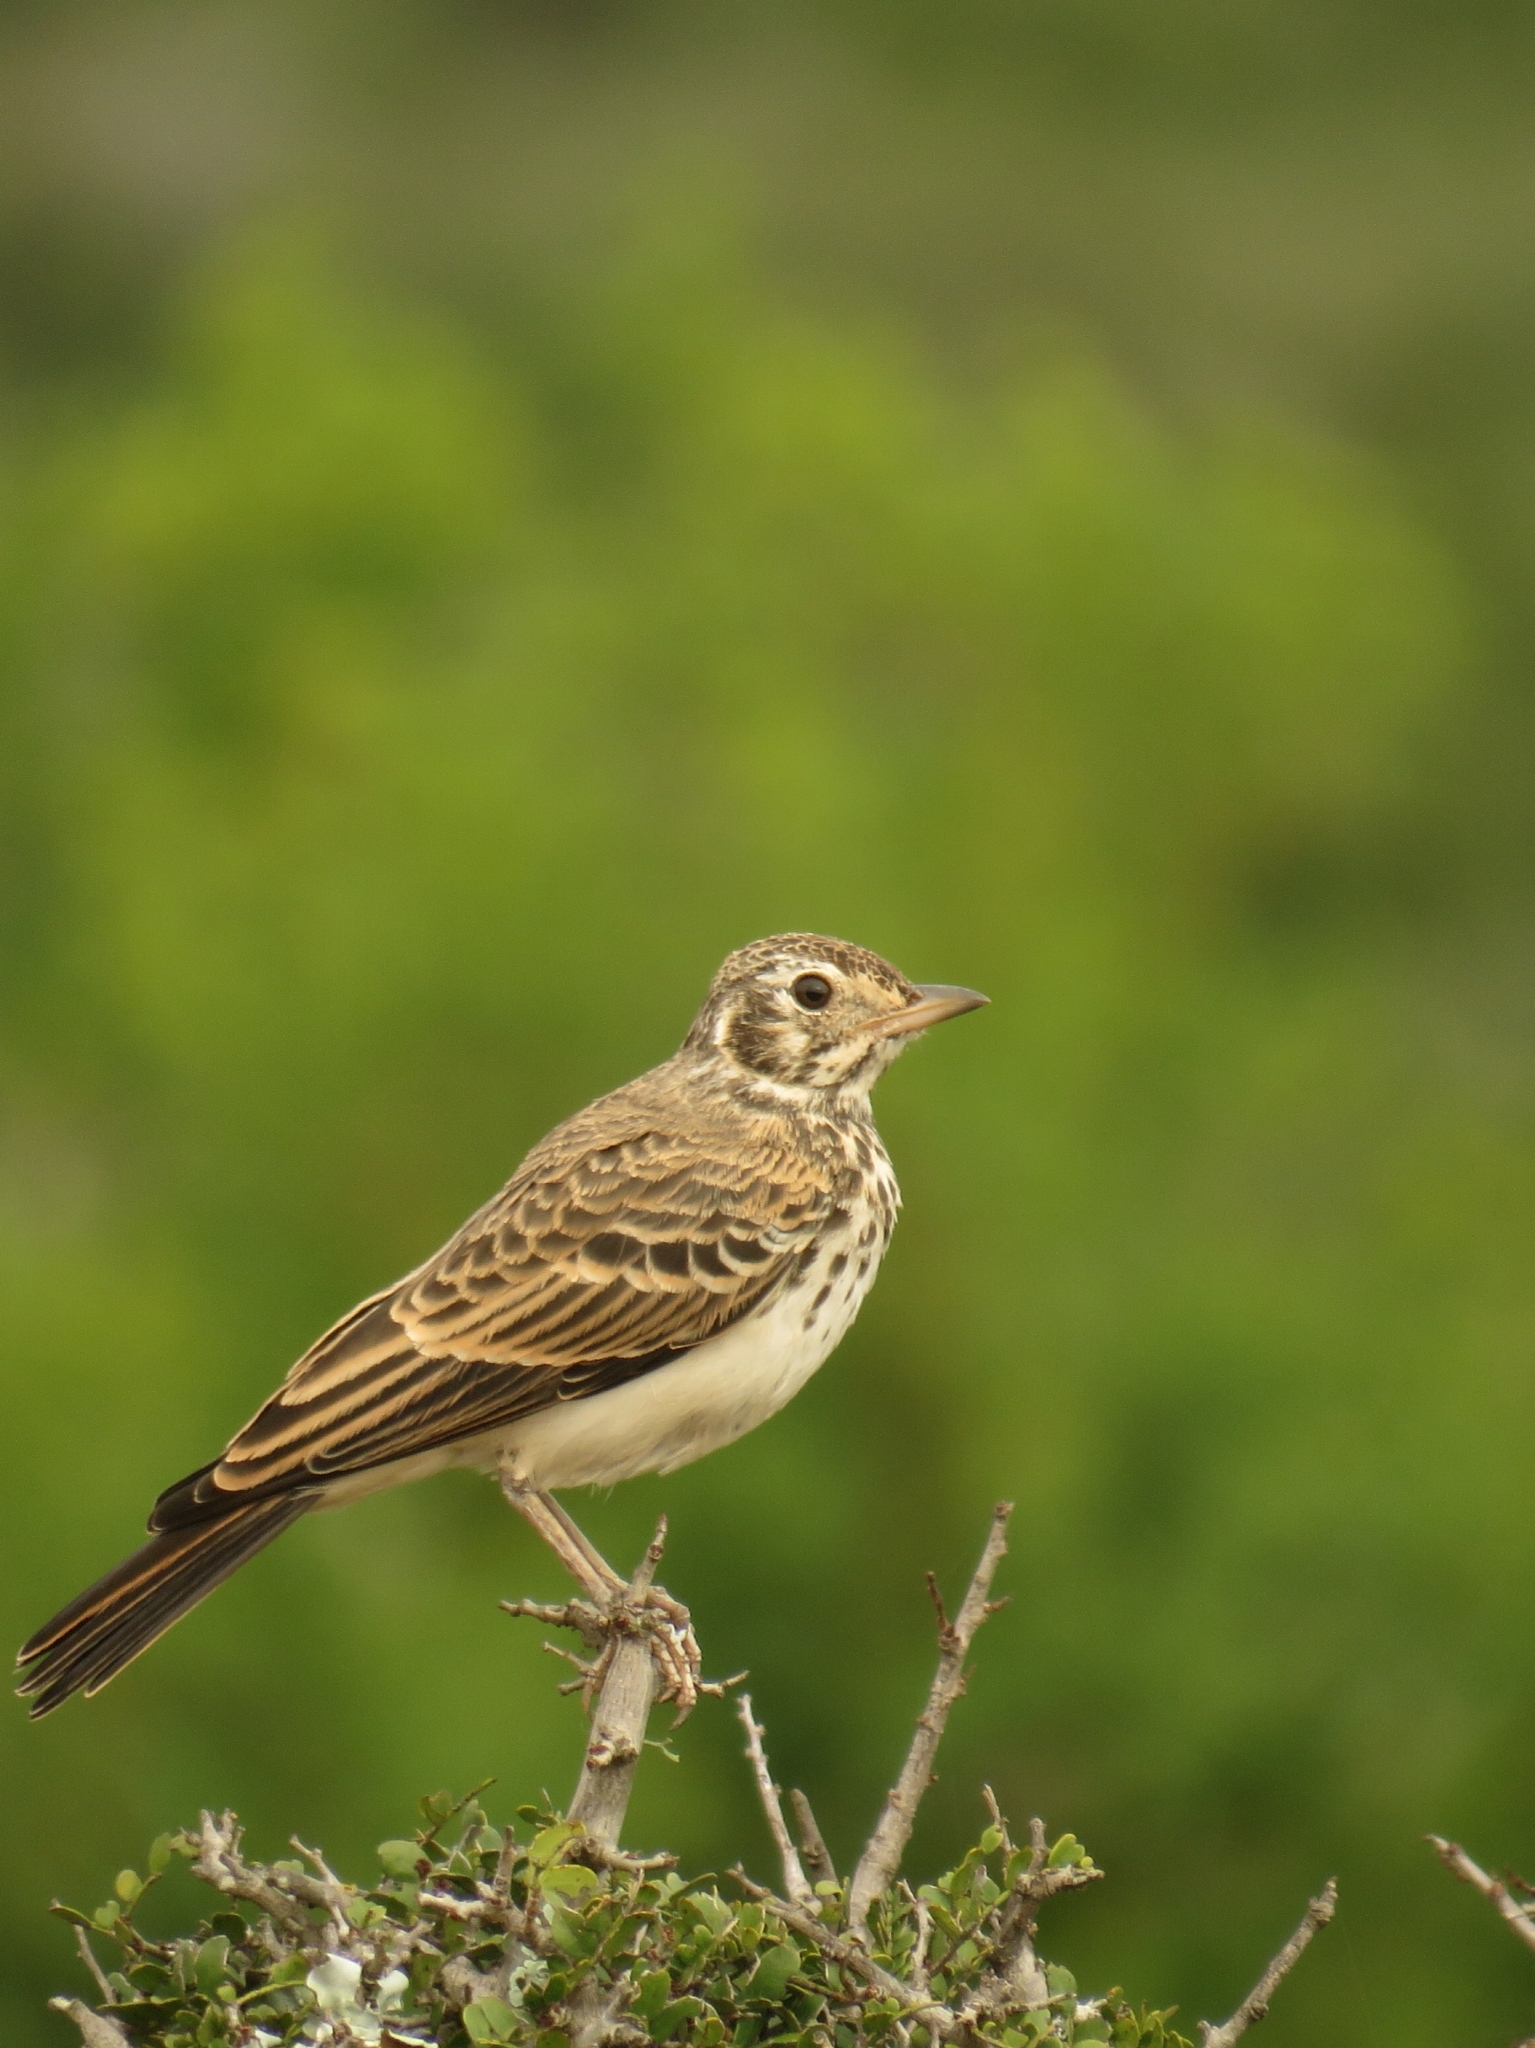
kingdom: Animalia
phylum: Chordata
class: Aves
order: Passeriformes
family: Alaudidae
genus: Pinarocorys
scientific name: Pinarocorys nigricans
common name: Dusky lark
